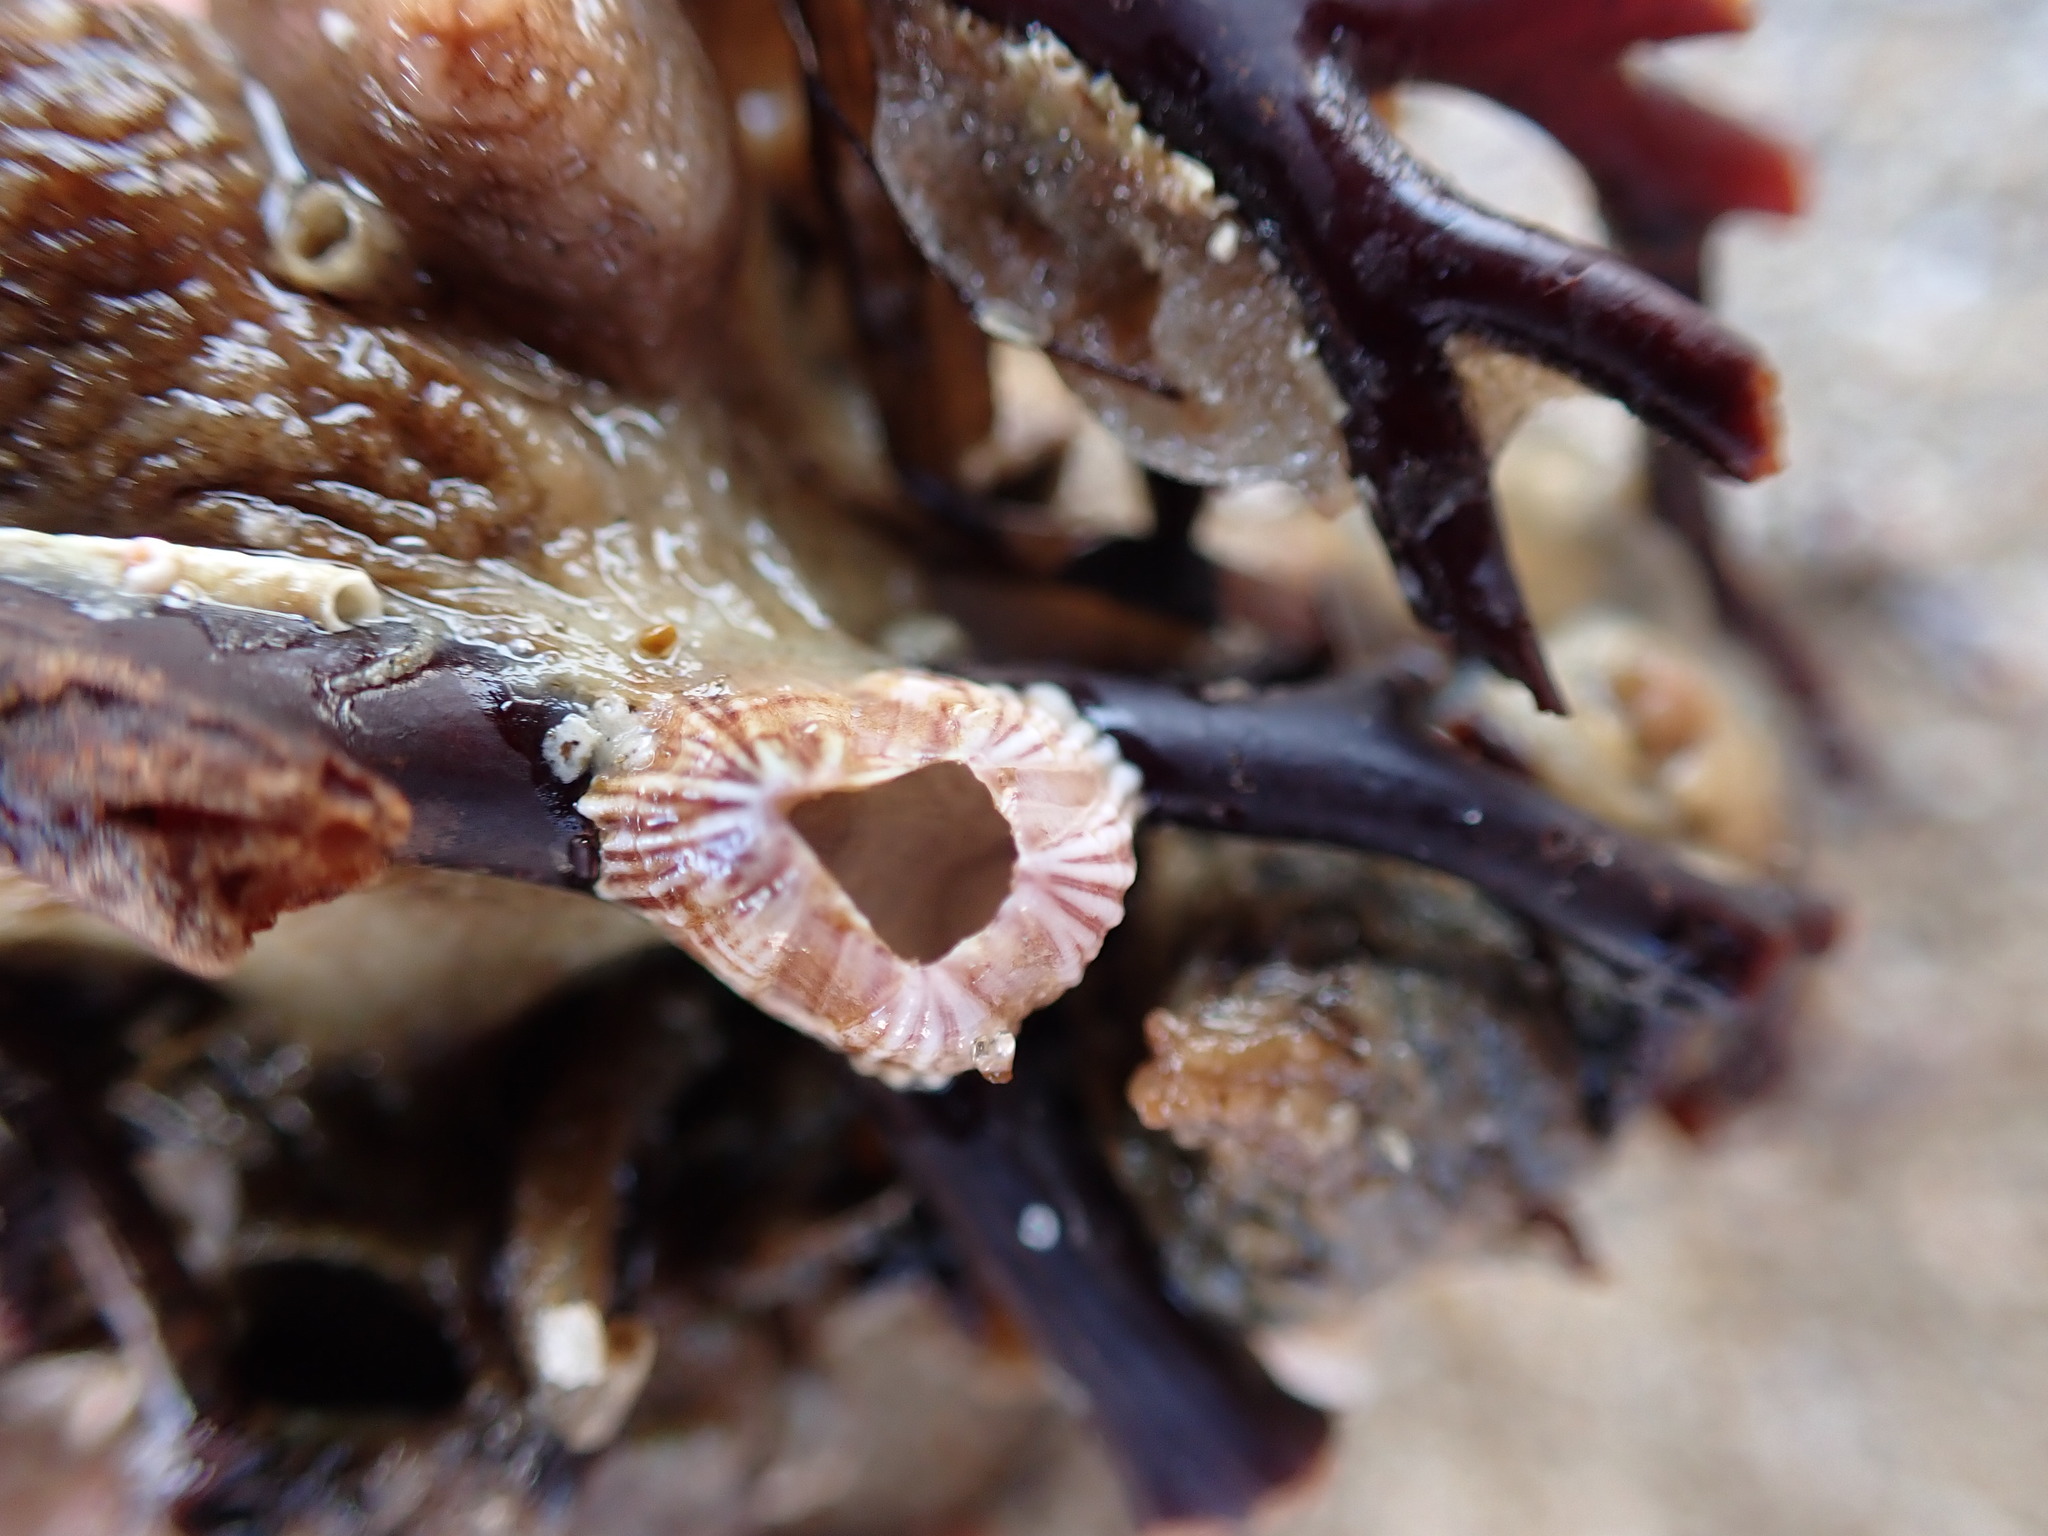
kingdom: Animalia
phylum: Arthropoda
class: Maxillopoda
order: Sessilia
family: Balanidae
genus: Balanus
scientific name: Balanus trigonus
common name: Triangle barnacle
